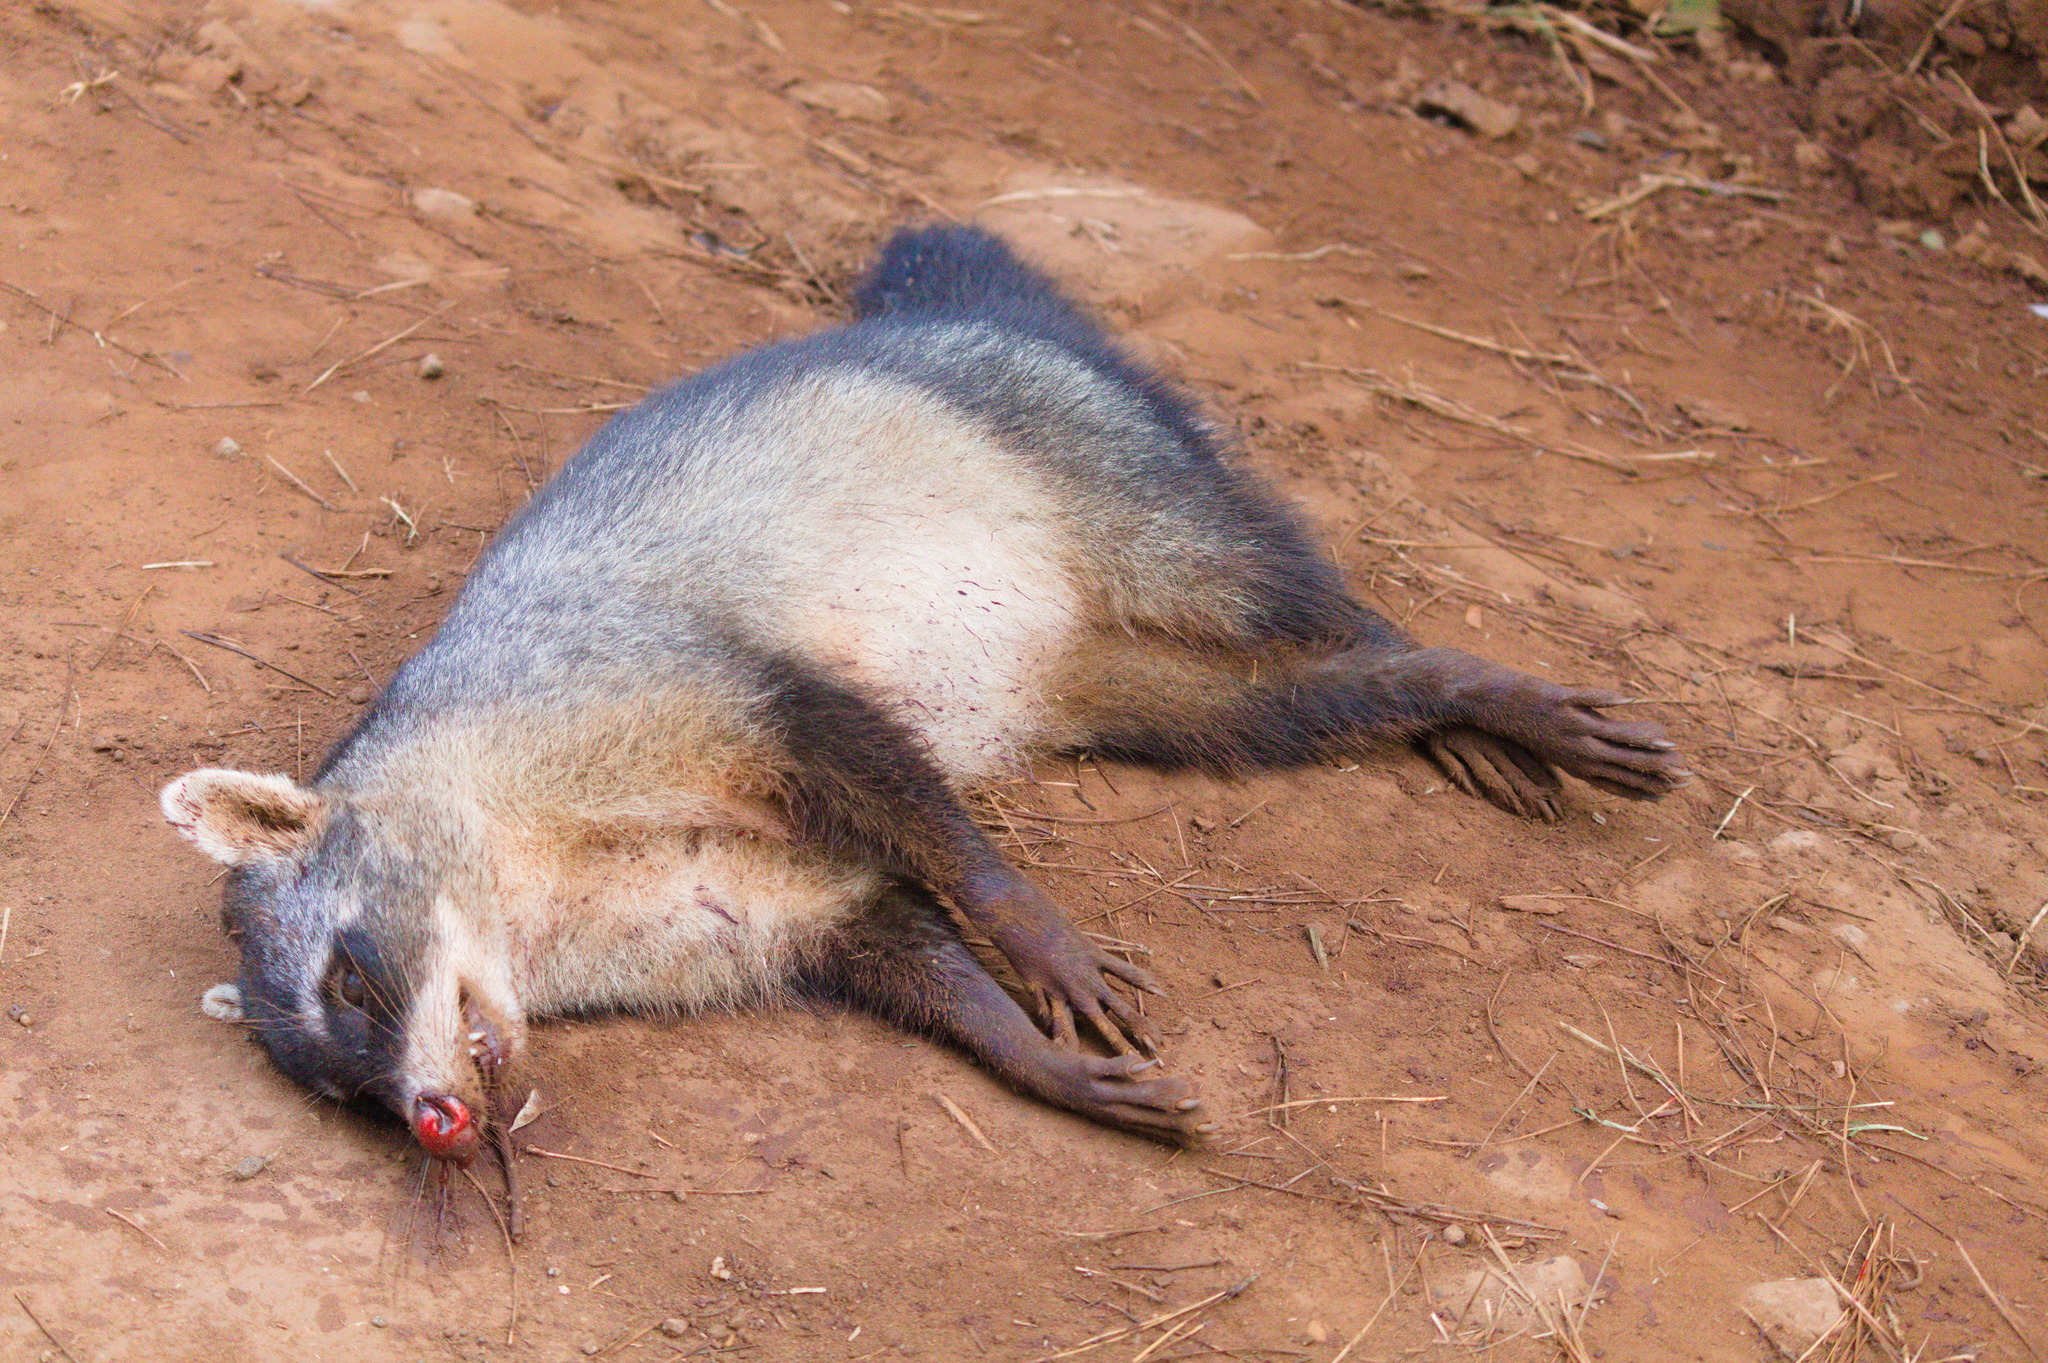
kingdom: Animalia
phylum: Chordata
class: Mammalia
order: Carnivora
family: Procyonidae
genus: Procyon
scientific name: Procyon cancrivorus
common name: Crab-eating raccoon
